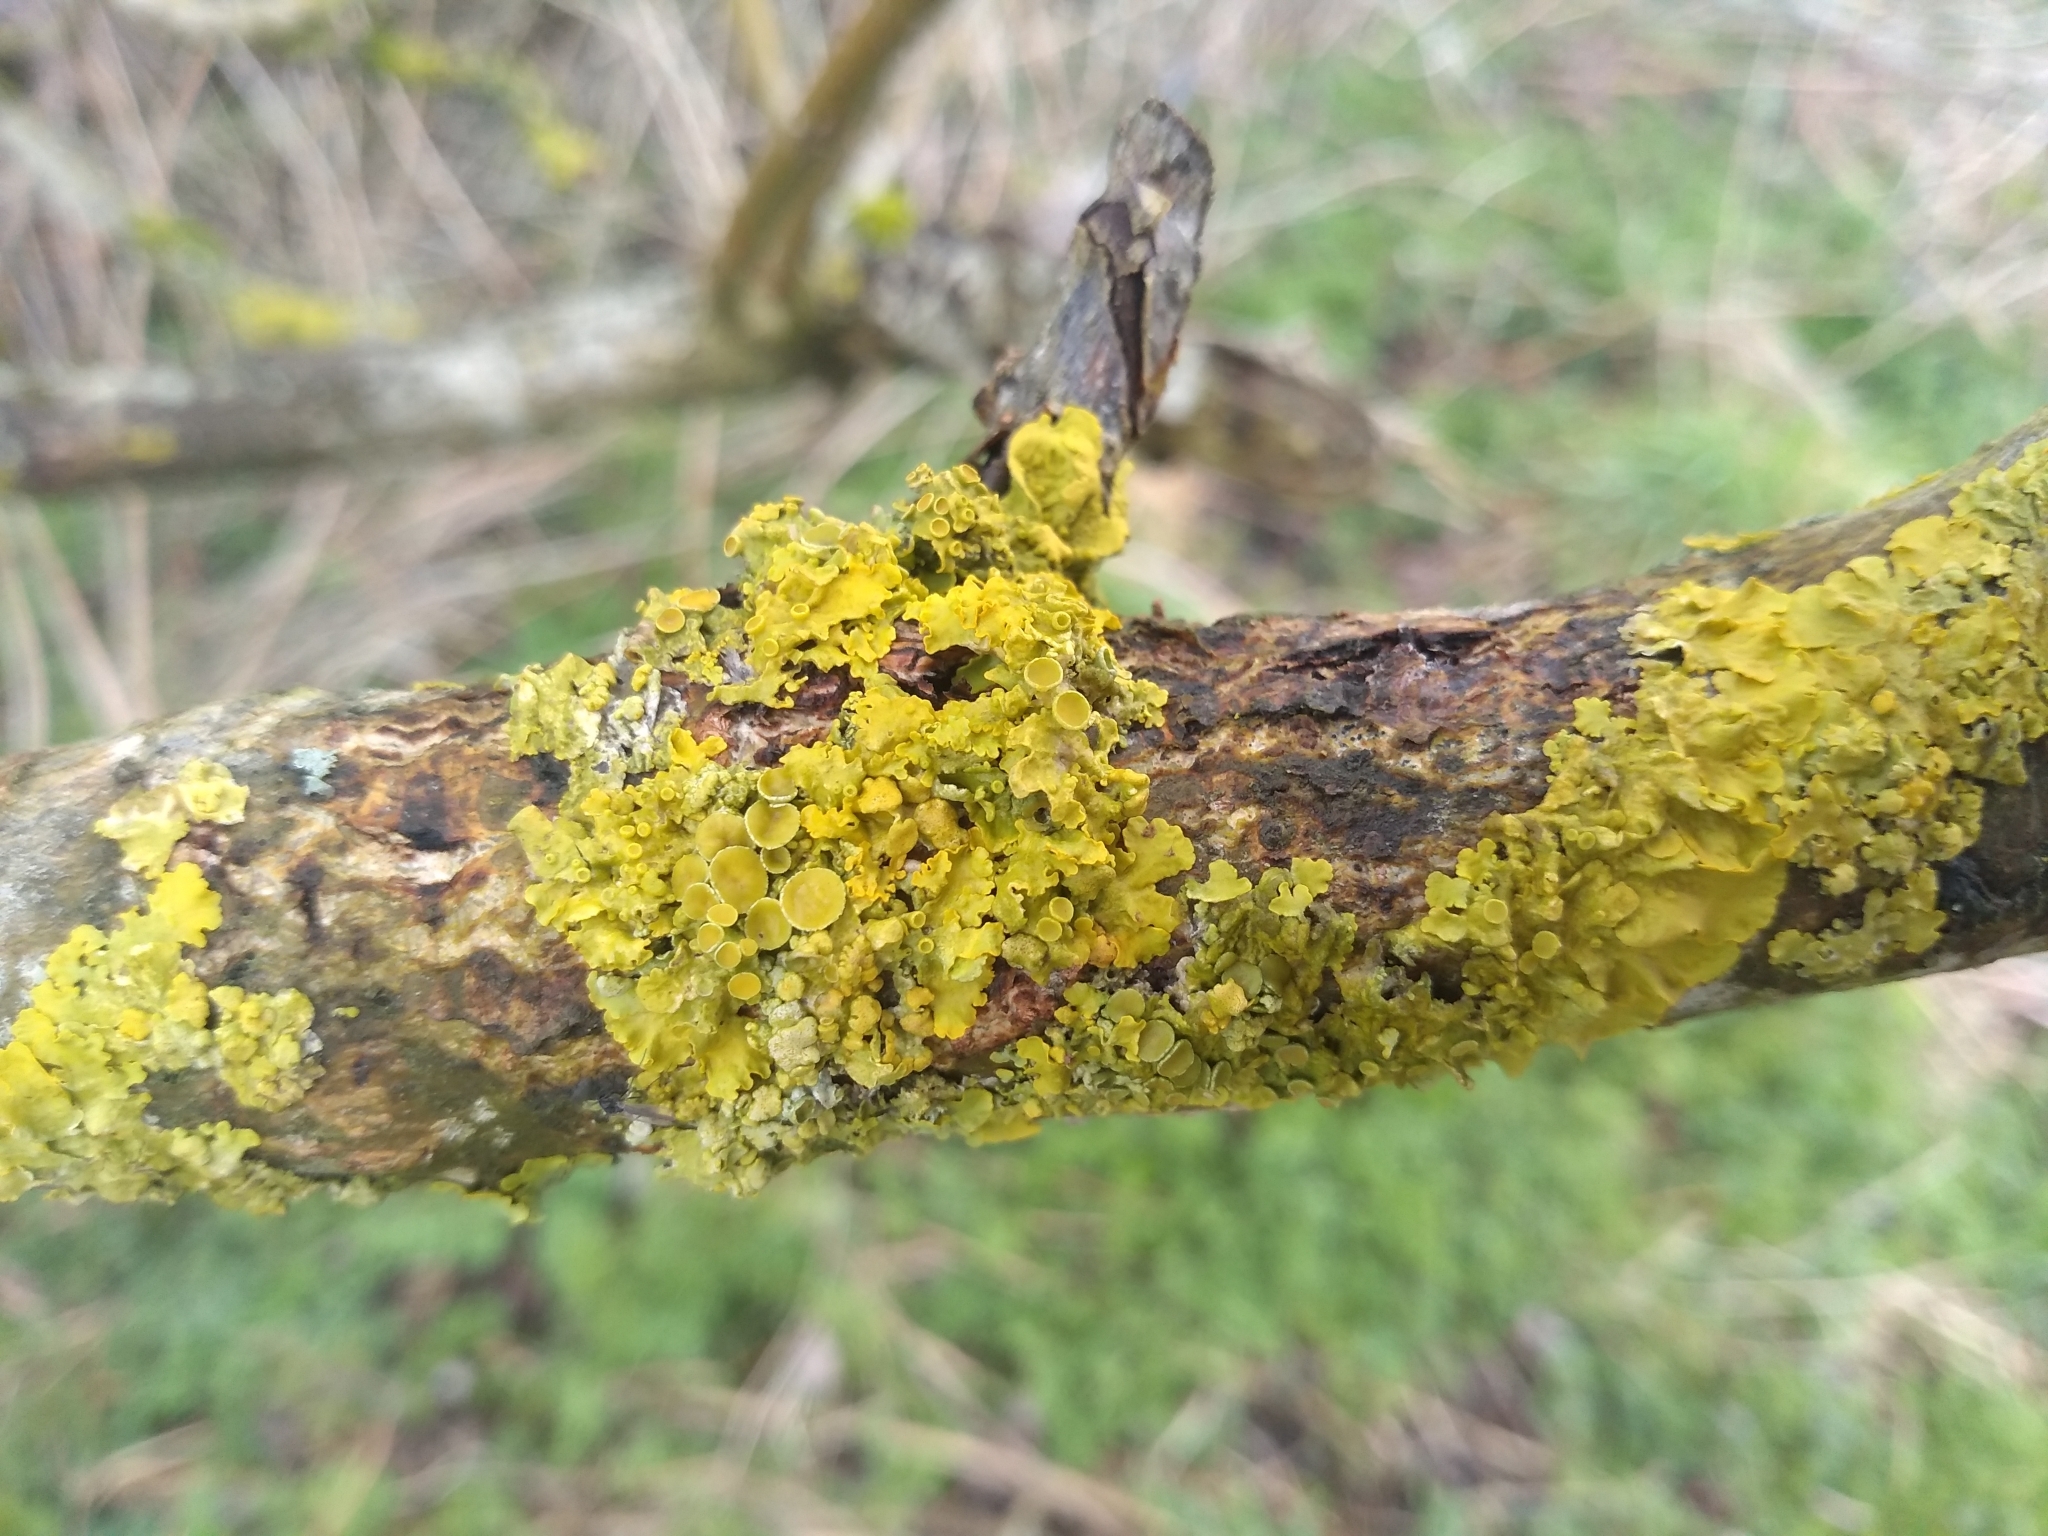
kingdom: Fungi
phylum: Ascomycota
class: Lecanoromycetes
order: Teloschistales
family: Teloschistaceae
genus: Xanthoria
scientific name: Xanthoria parietina
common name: Common orange lichen
